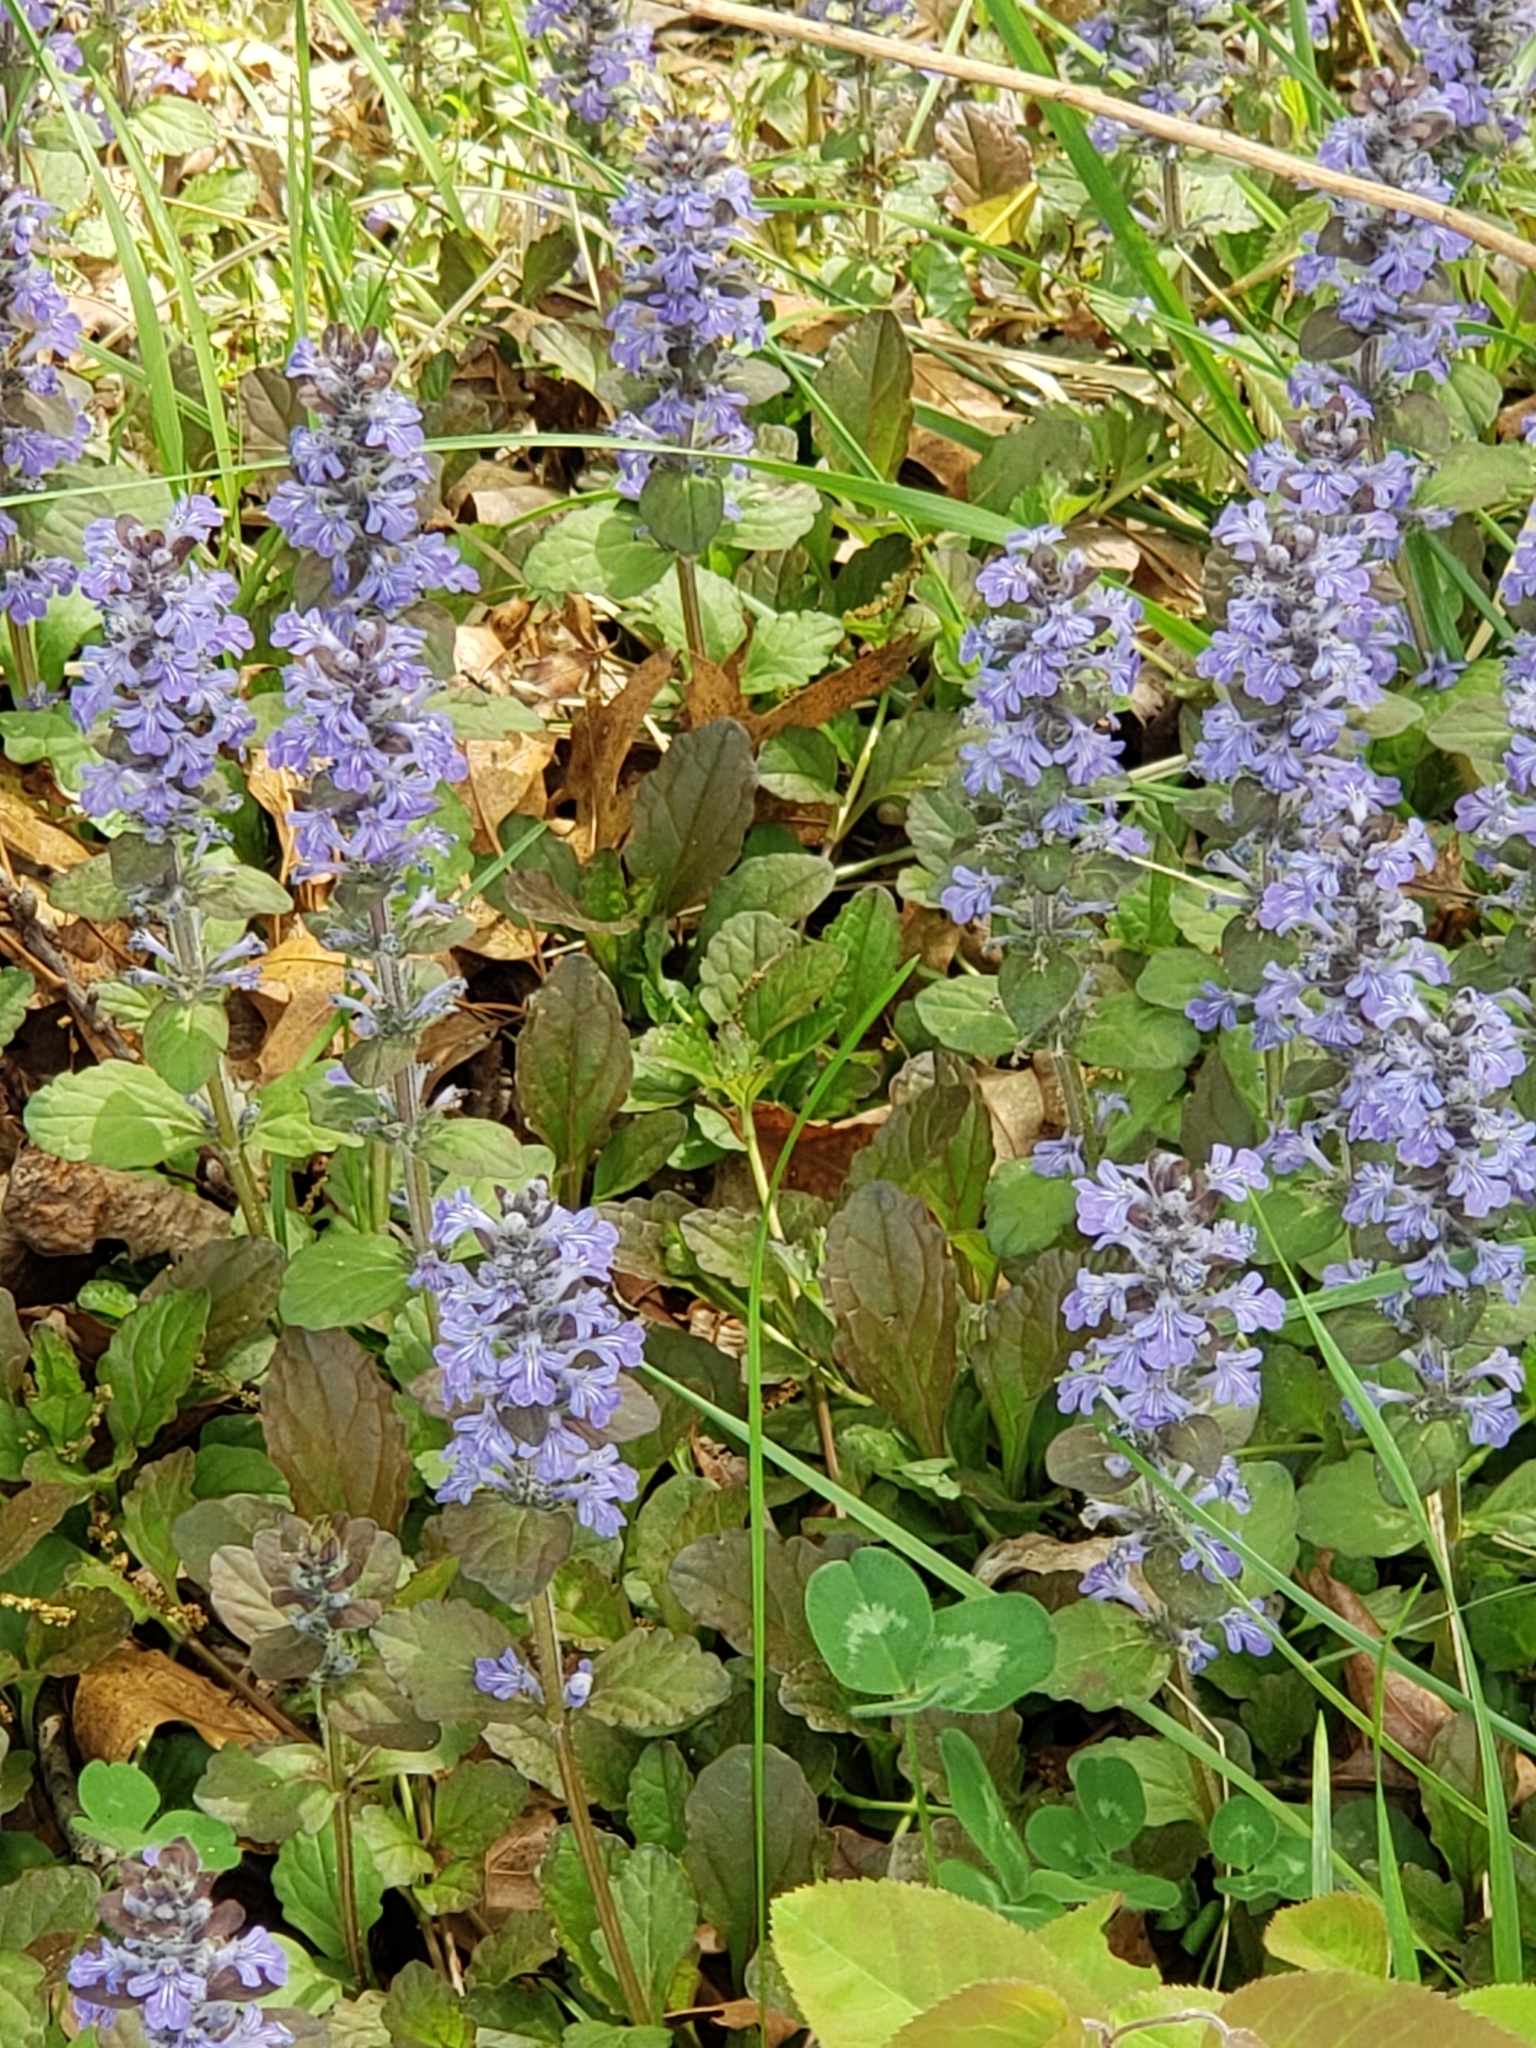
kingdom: Plantae
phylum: Tracheophyta
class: Magnoliopsida
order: Lamiales
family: Lamiaceae
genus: Ajuga
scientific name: Ajuga reptans
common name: Bugle
